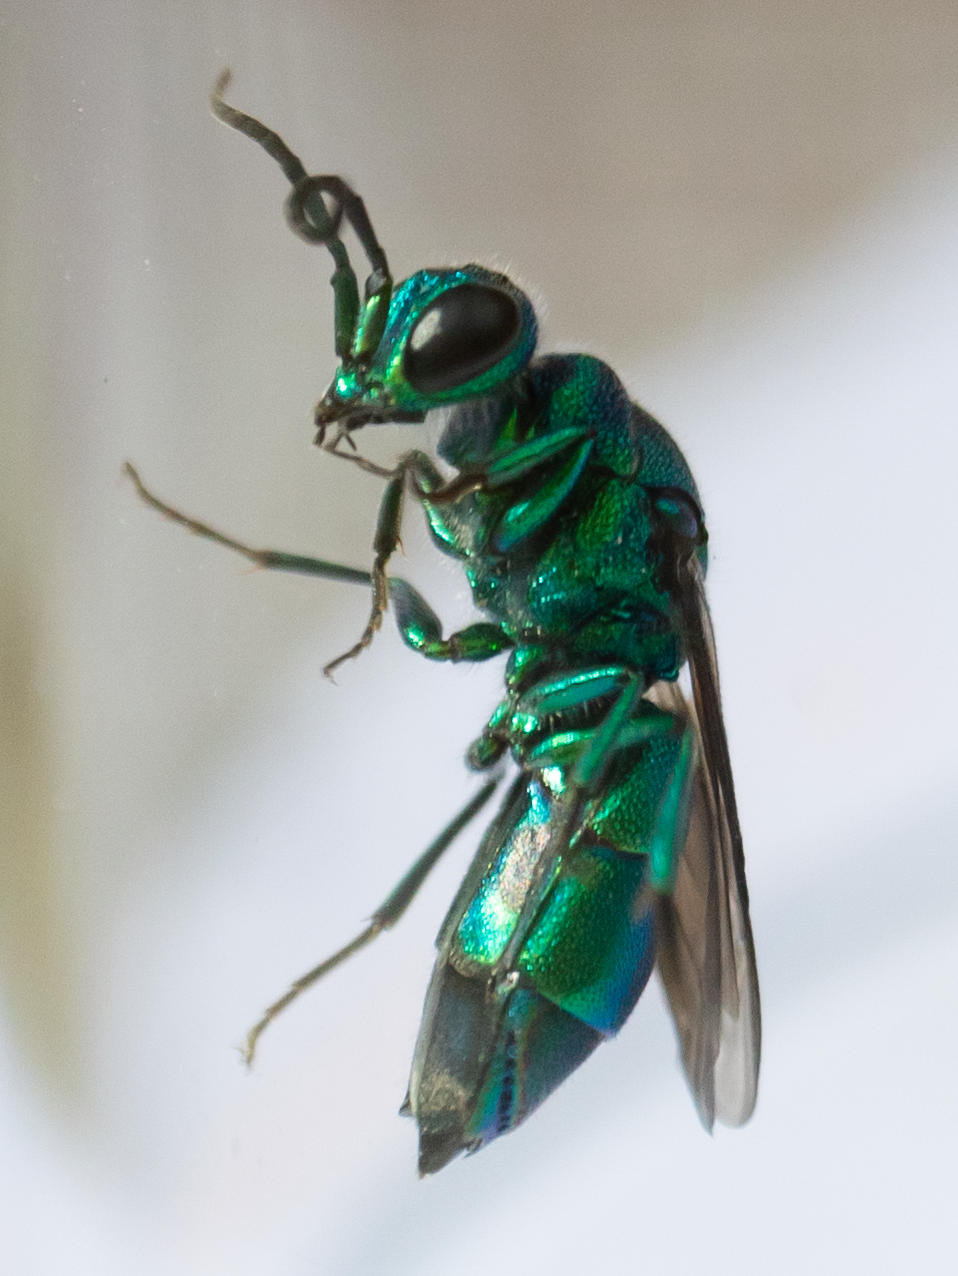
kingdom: Animalia
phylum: Arthropoda
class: Insecta
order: Hymenoptera
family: Chrysididae
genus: Chrysis
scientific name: Chrysis
